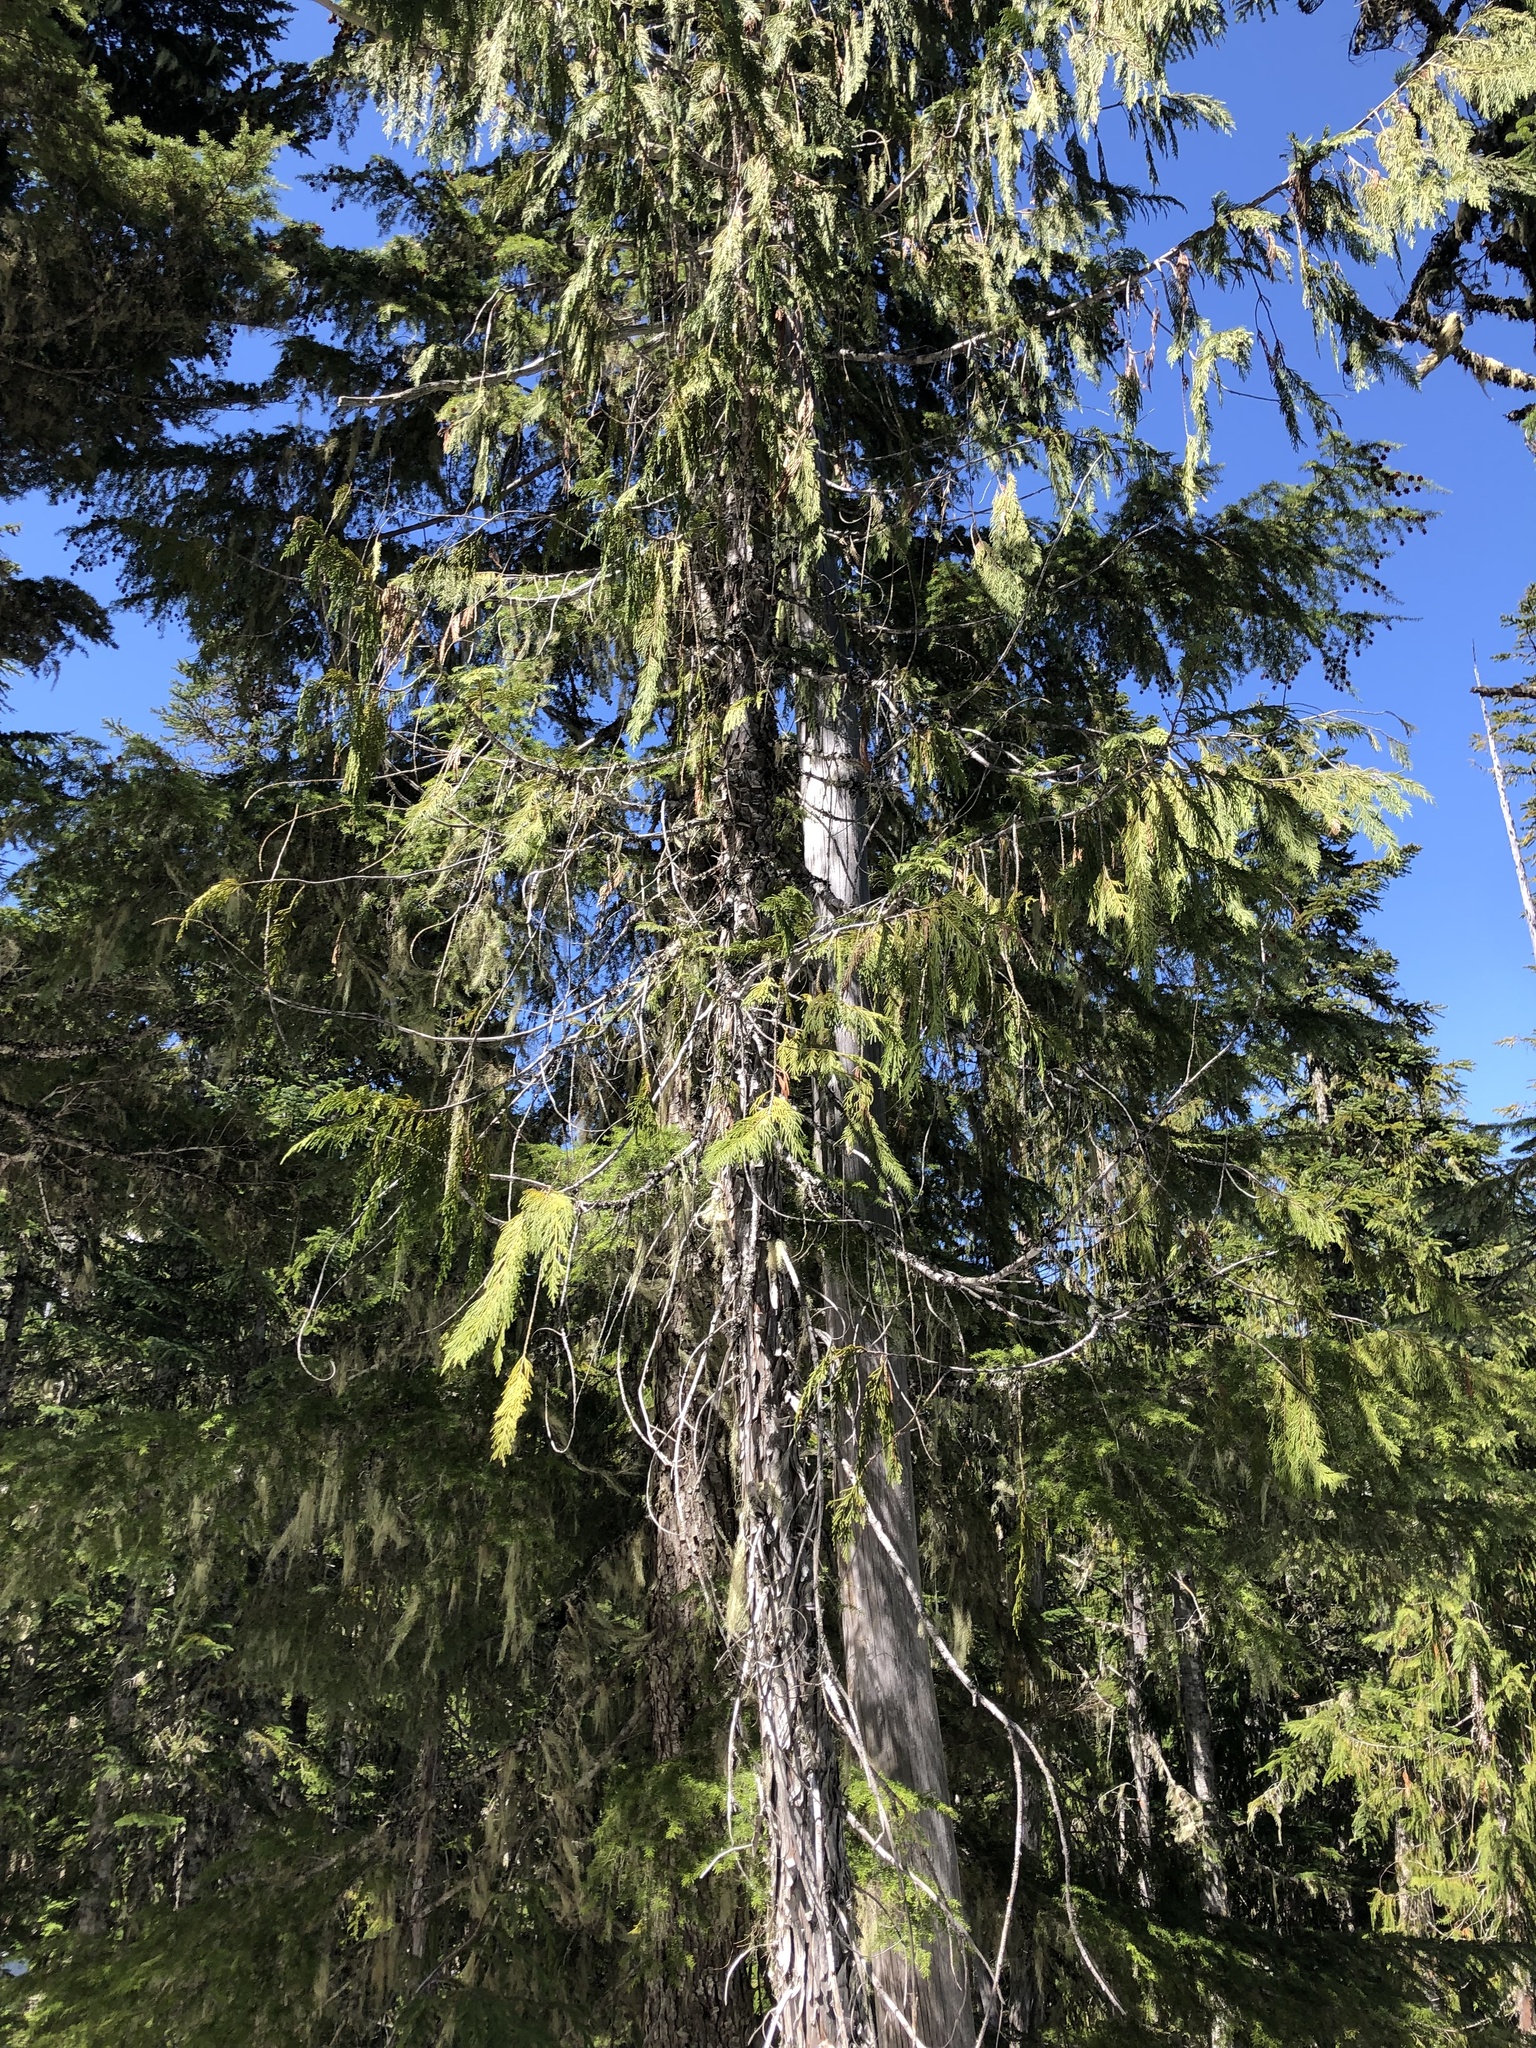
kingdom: Plantae
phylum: Tracheophyta
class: Pinopsida
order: Pinales
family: Cupressaceae
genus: Xanthocyparis
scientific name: Xanthocyparis nootkatensis
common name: Nootka cypress
